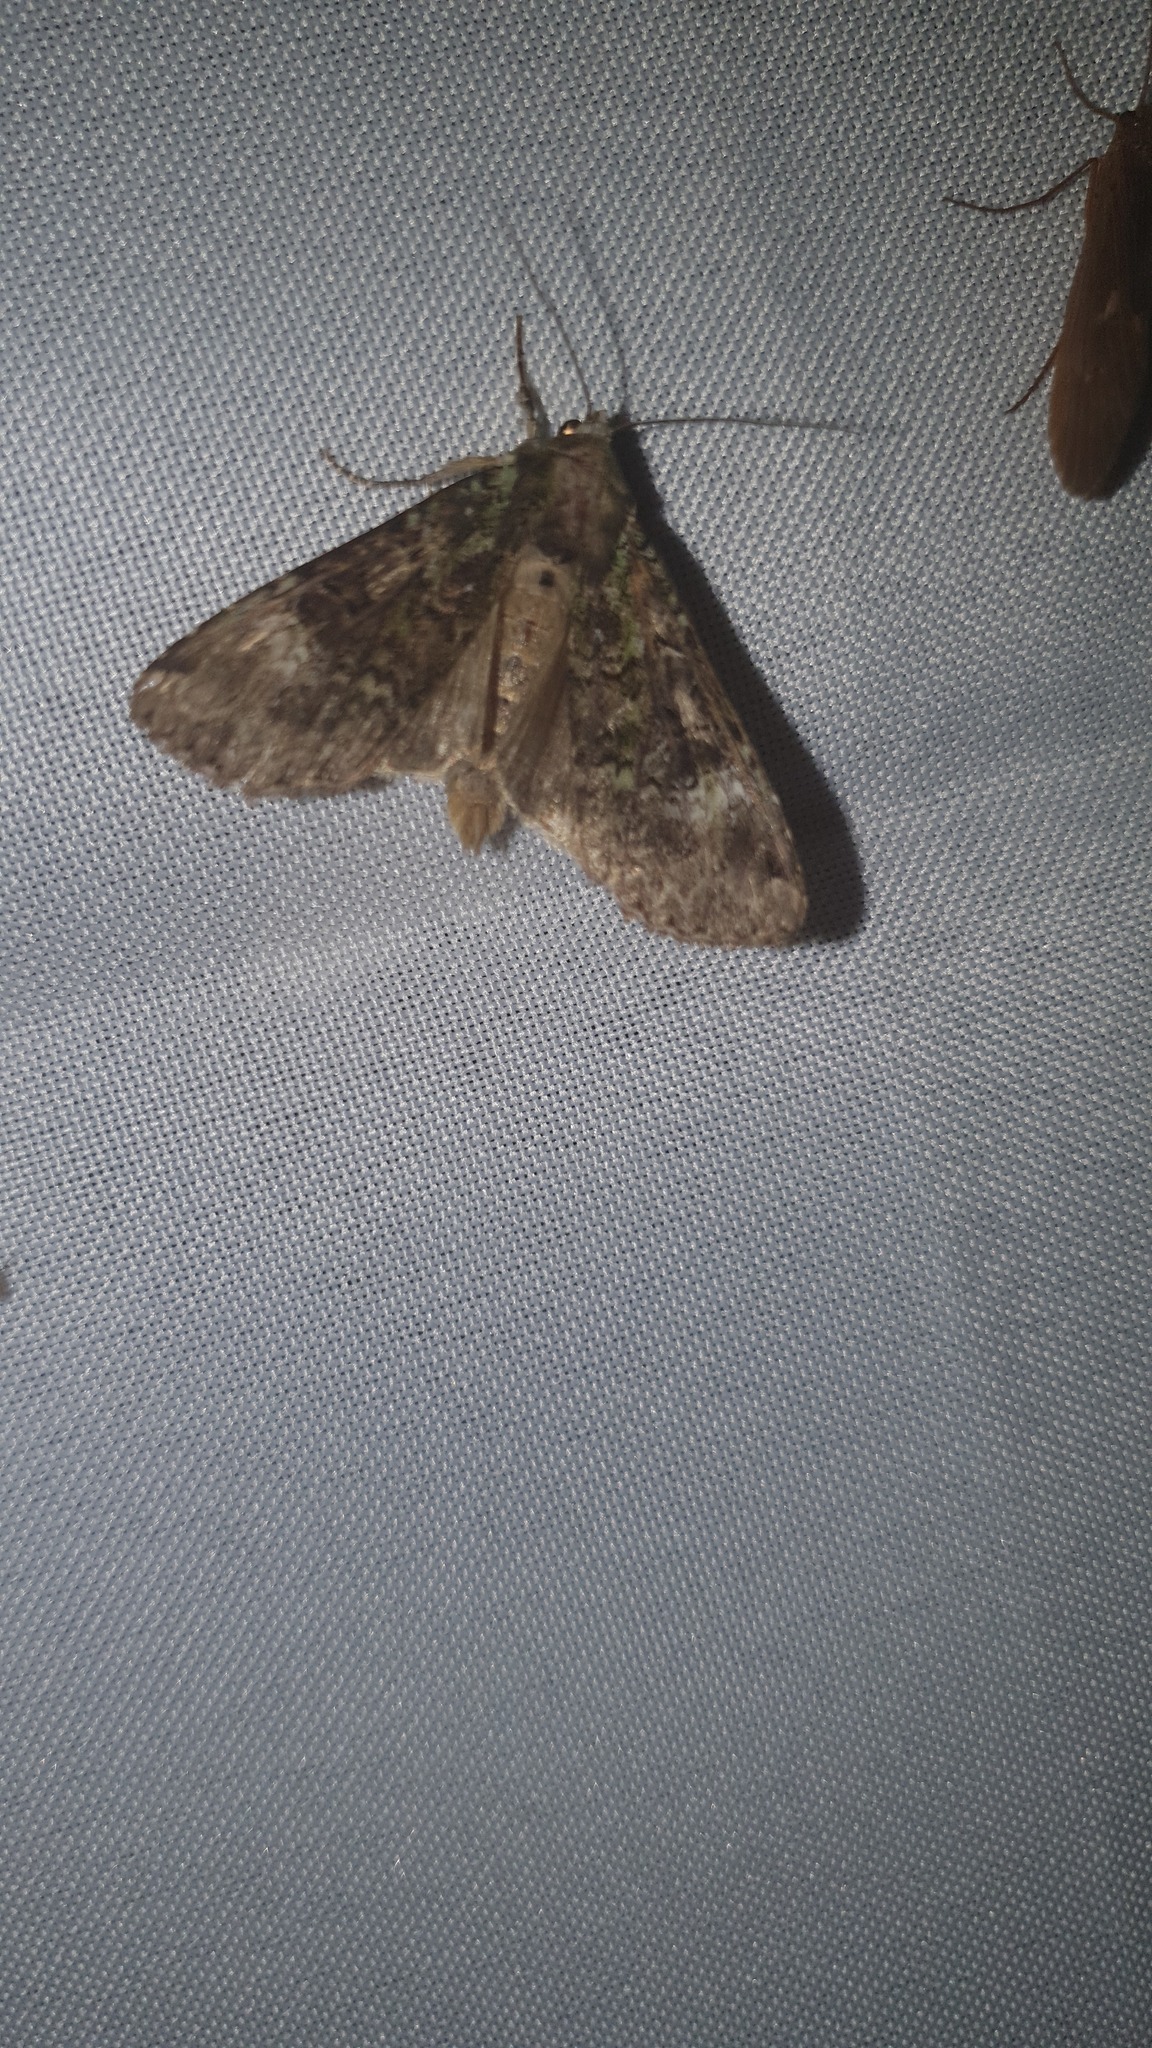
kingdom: Animalia
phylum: Arthropoda
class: Insecta
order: Lepidoptera
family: Noctuidae
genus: Anaplectoides
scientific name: Anaplectoides prasina
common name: Green arches
